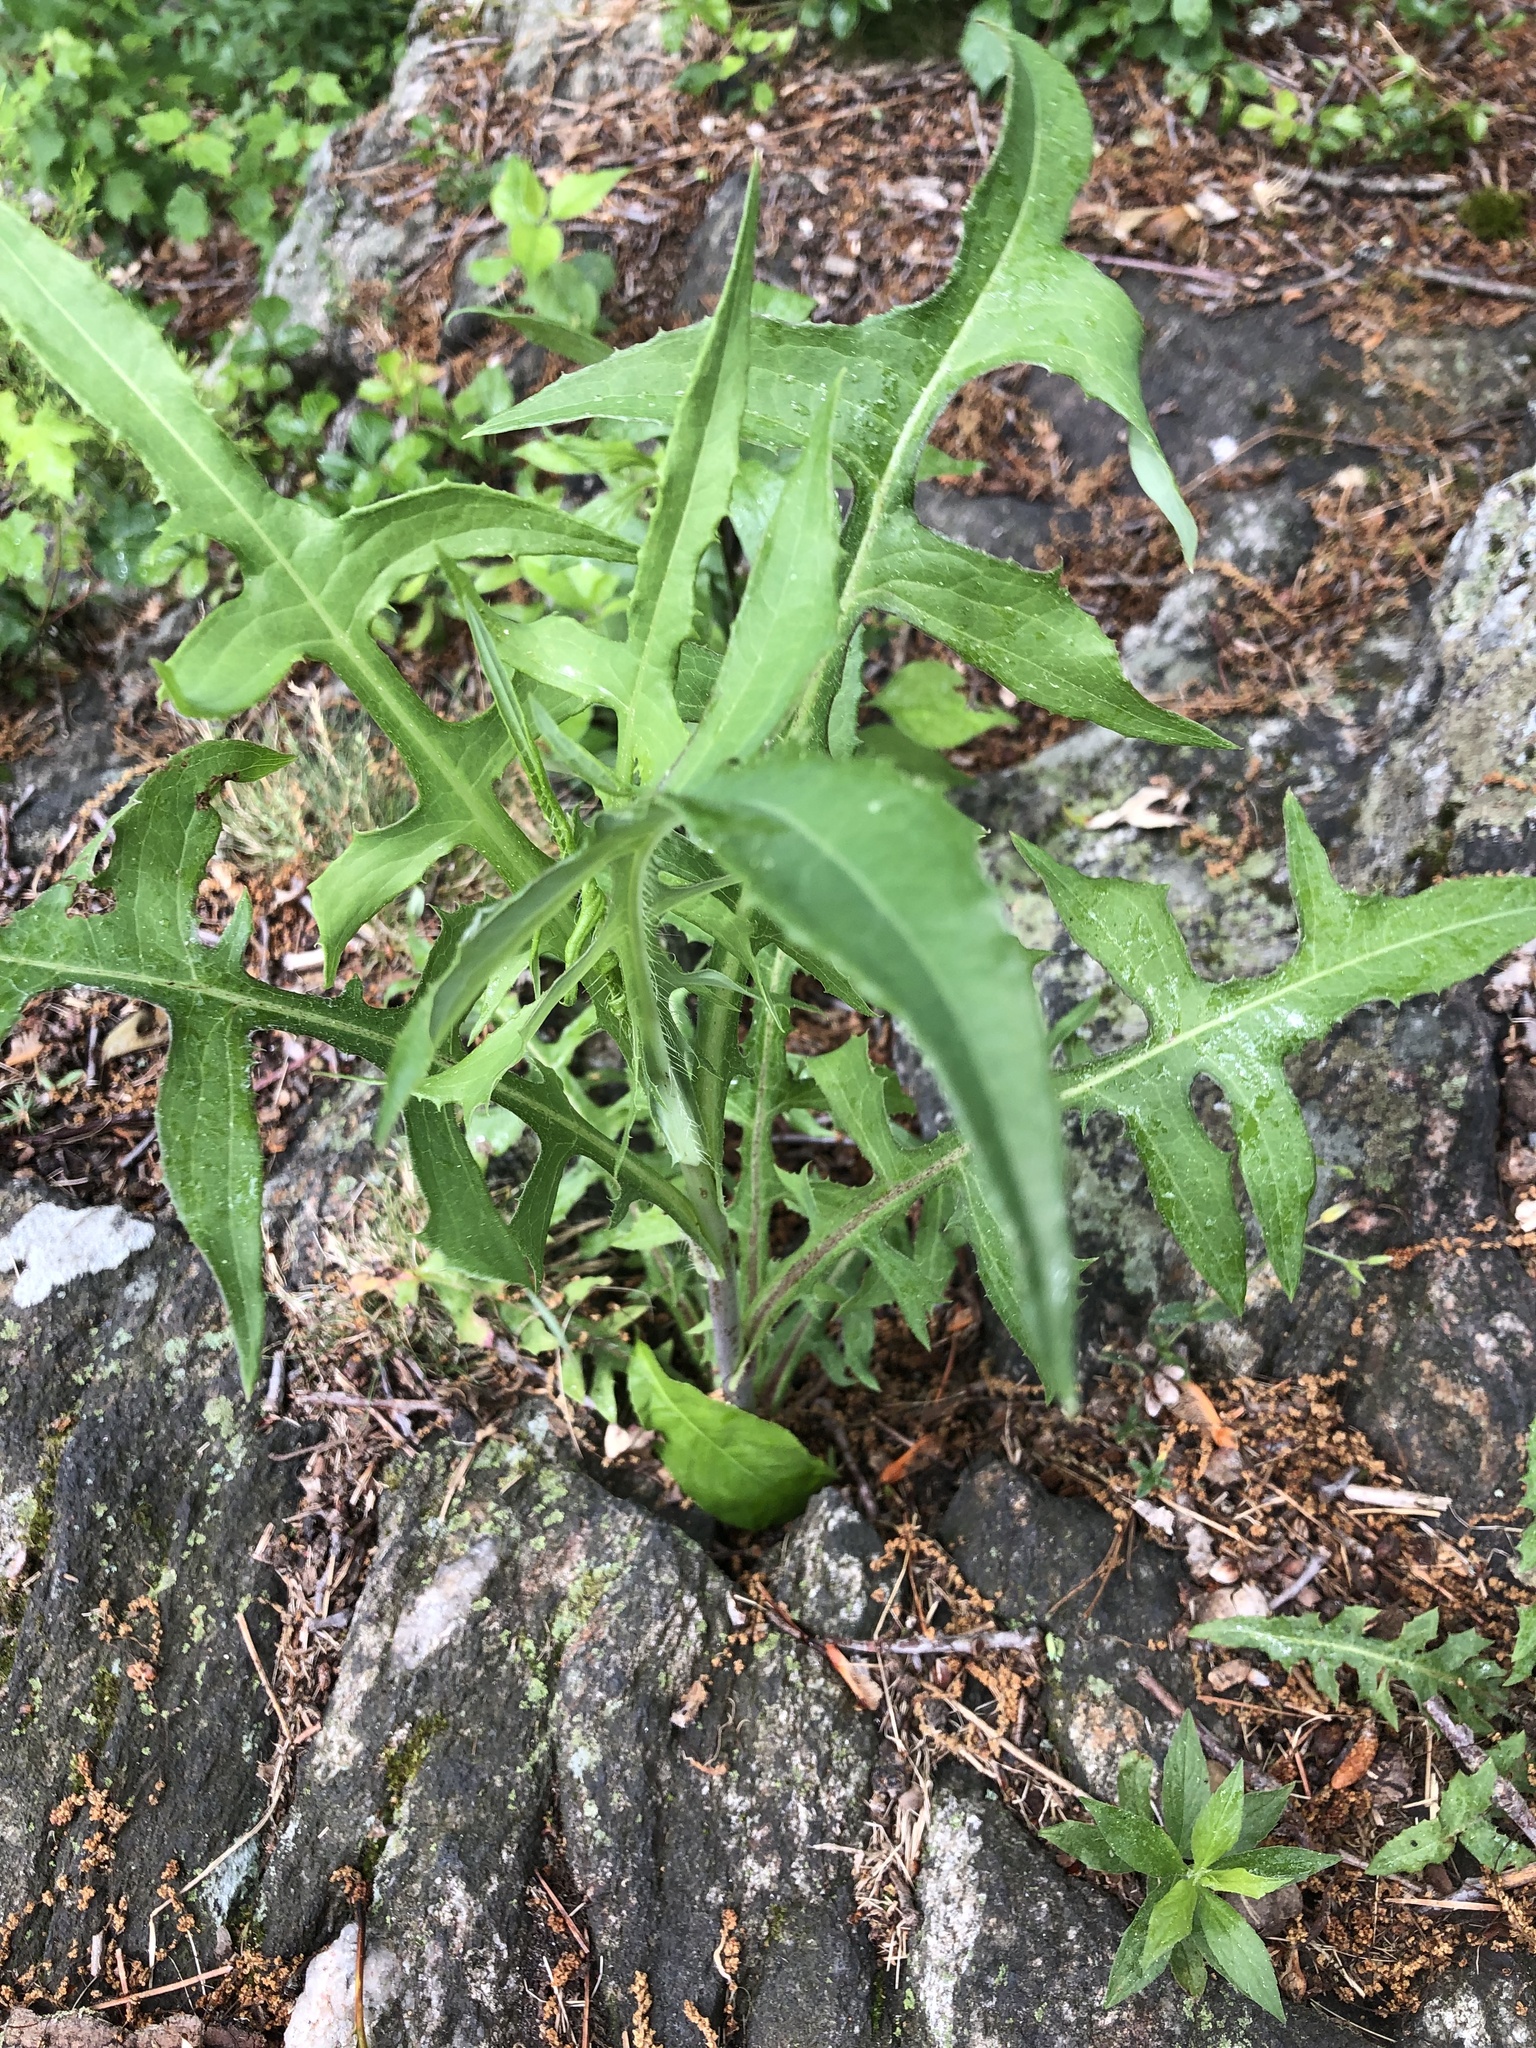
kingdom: Plantae
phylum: Tracheophyta
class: Magnoliopsida
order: Asterales
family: Asteraceae
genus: Lactuca
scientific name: Lactuca canadensis
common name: Canada lettuce
